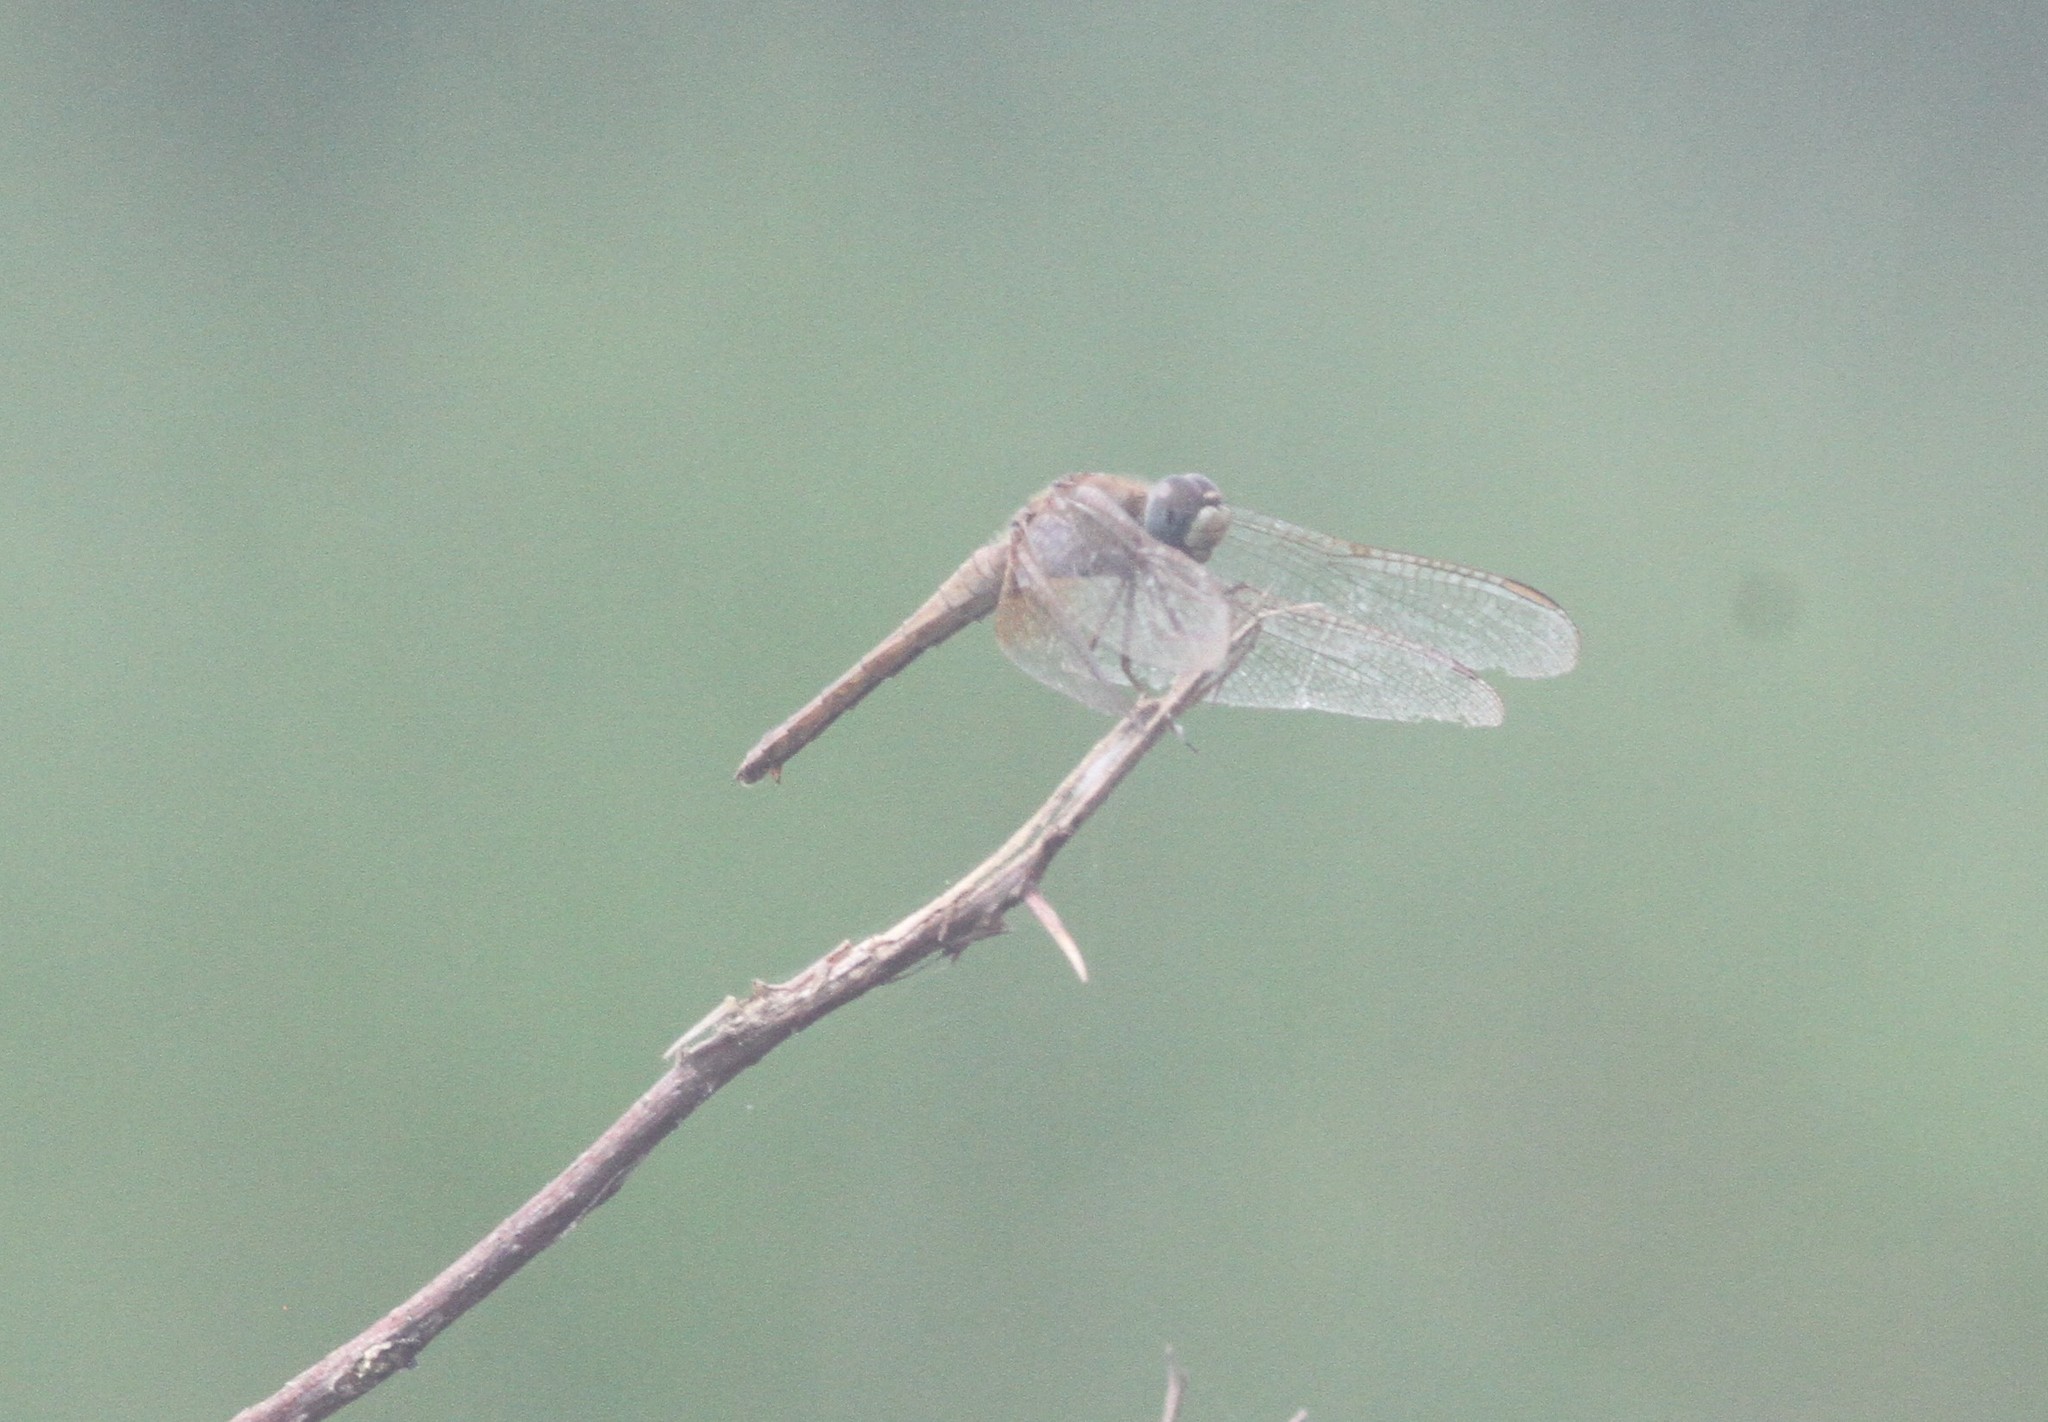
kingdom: Animalia
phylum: Arthropoda
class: Insecta
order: Odonata
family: Libellulidae
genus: Crocothemis
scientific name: Crocothemis servilia
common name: Scarlet skimmer
